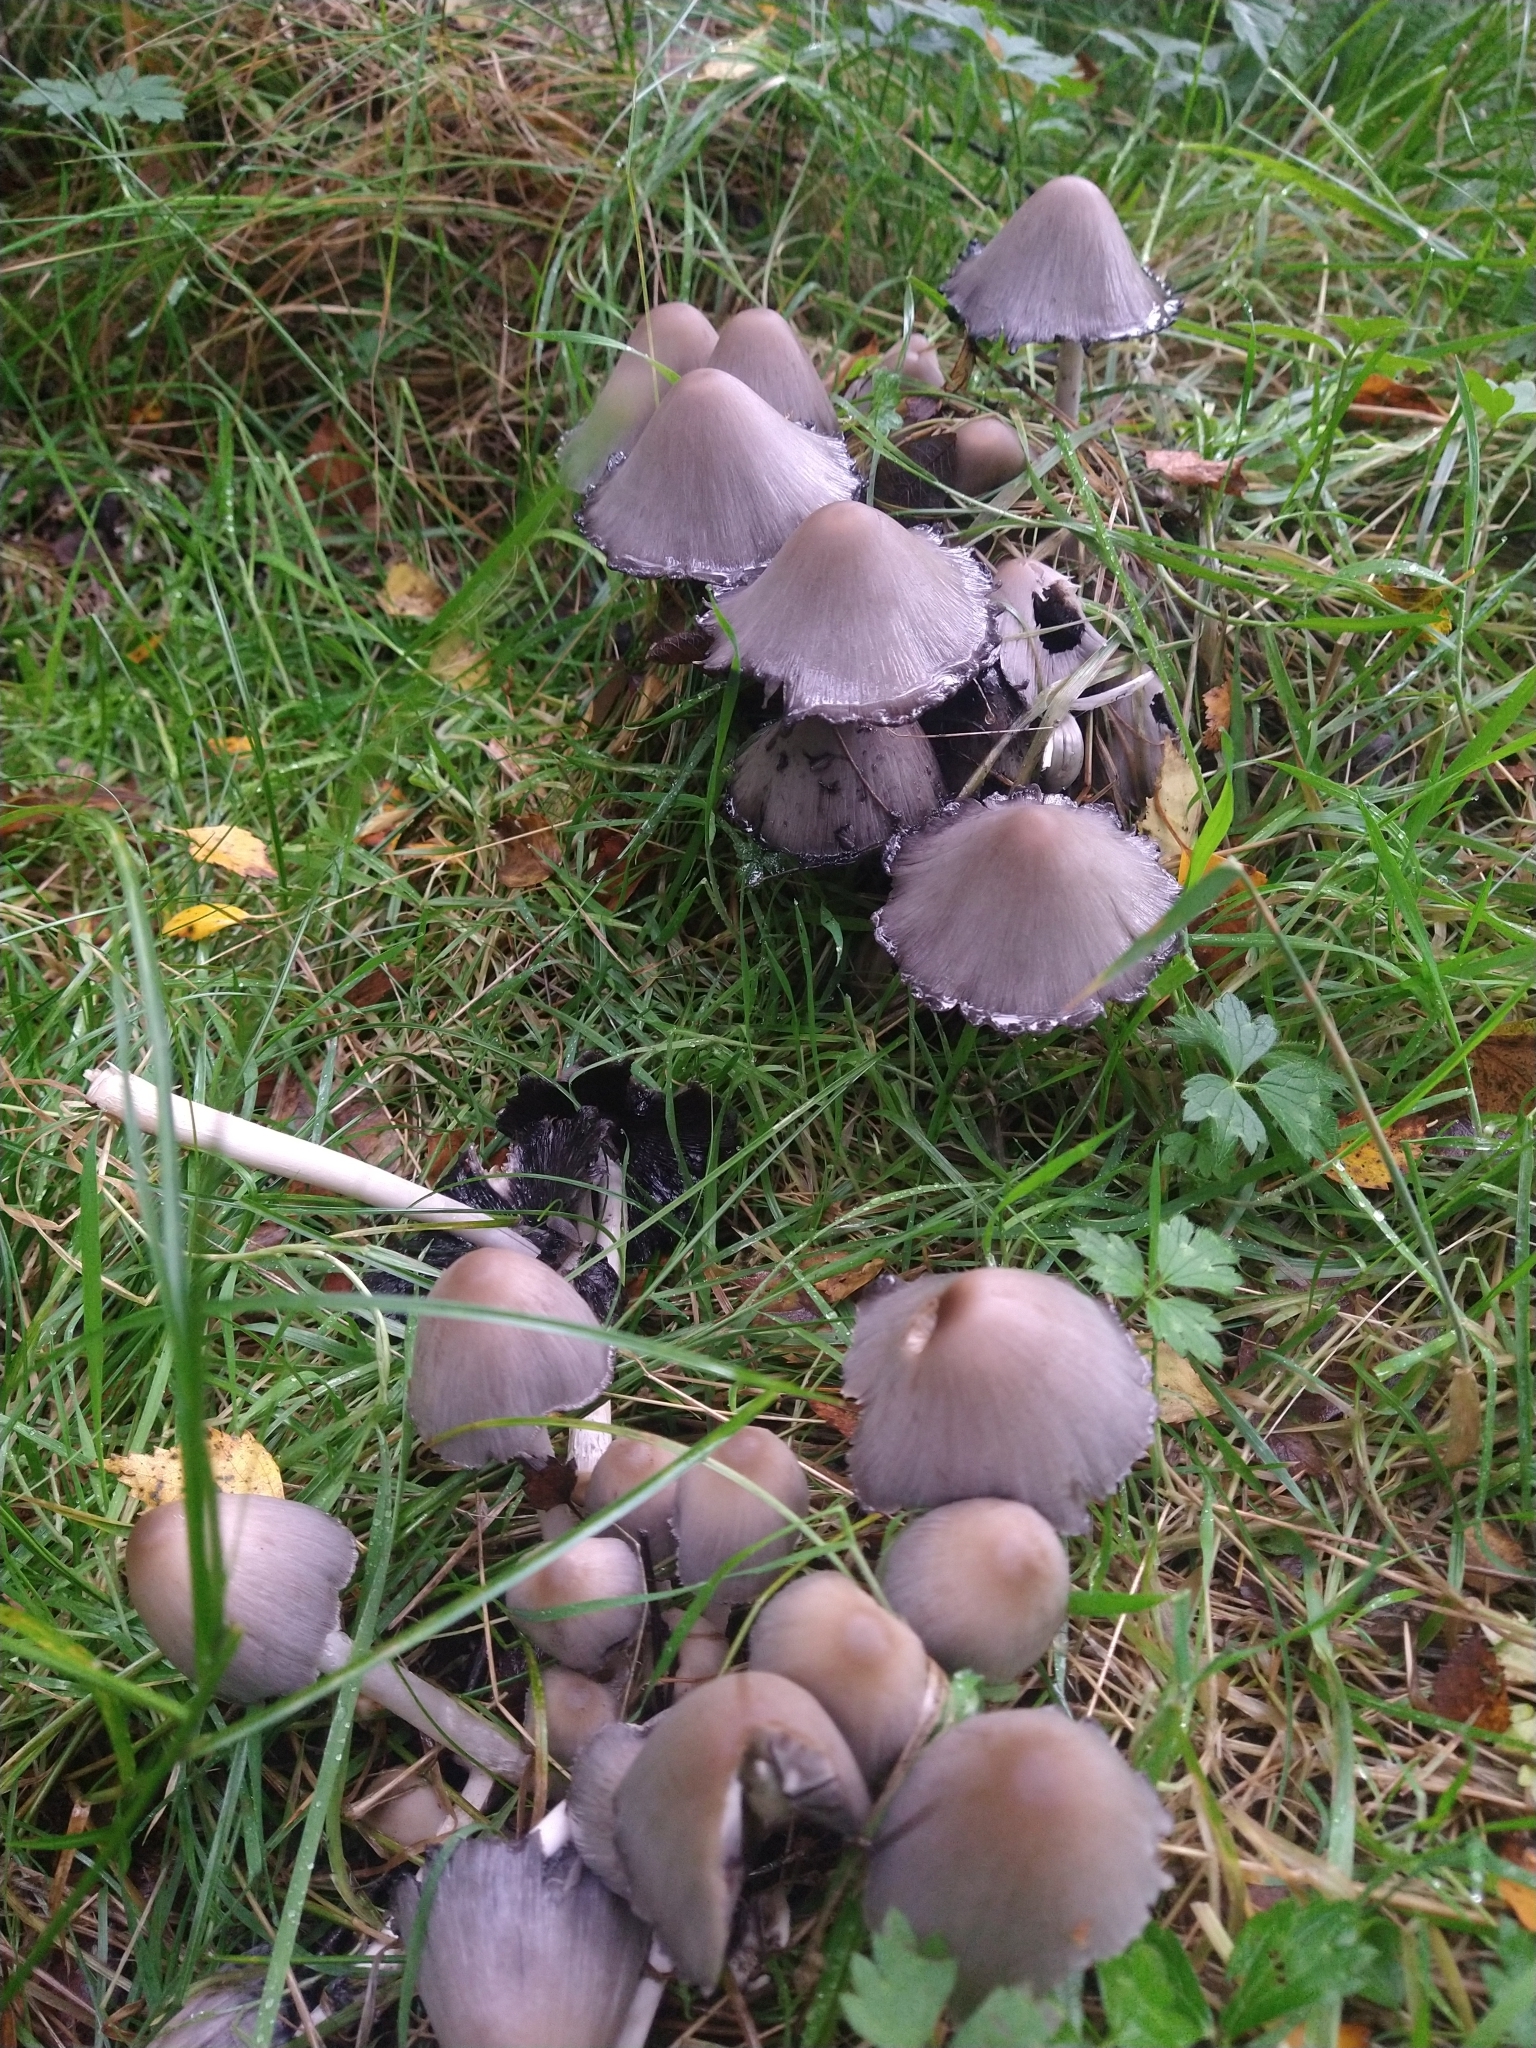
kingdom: Fungi
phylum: Basidiomycota
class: Agaricomycetes
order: Agaricales
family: Psathyrellaceae
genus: Coprinopsis
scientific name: Coprinopsis atramentaria
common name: Common ink-cap
